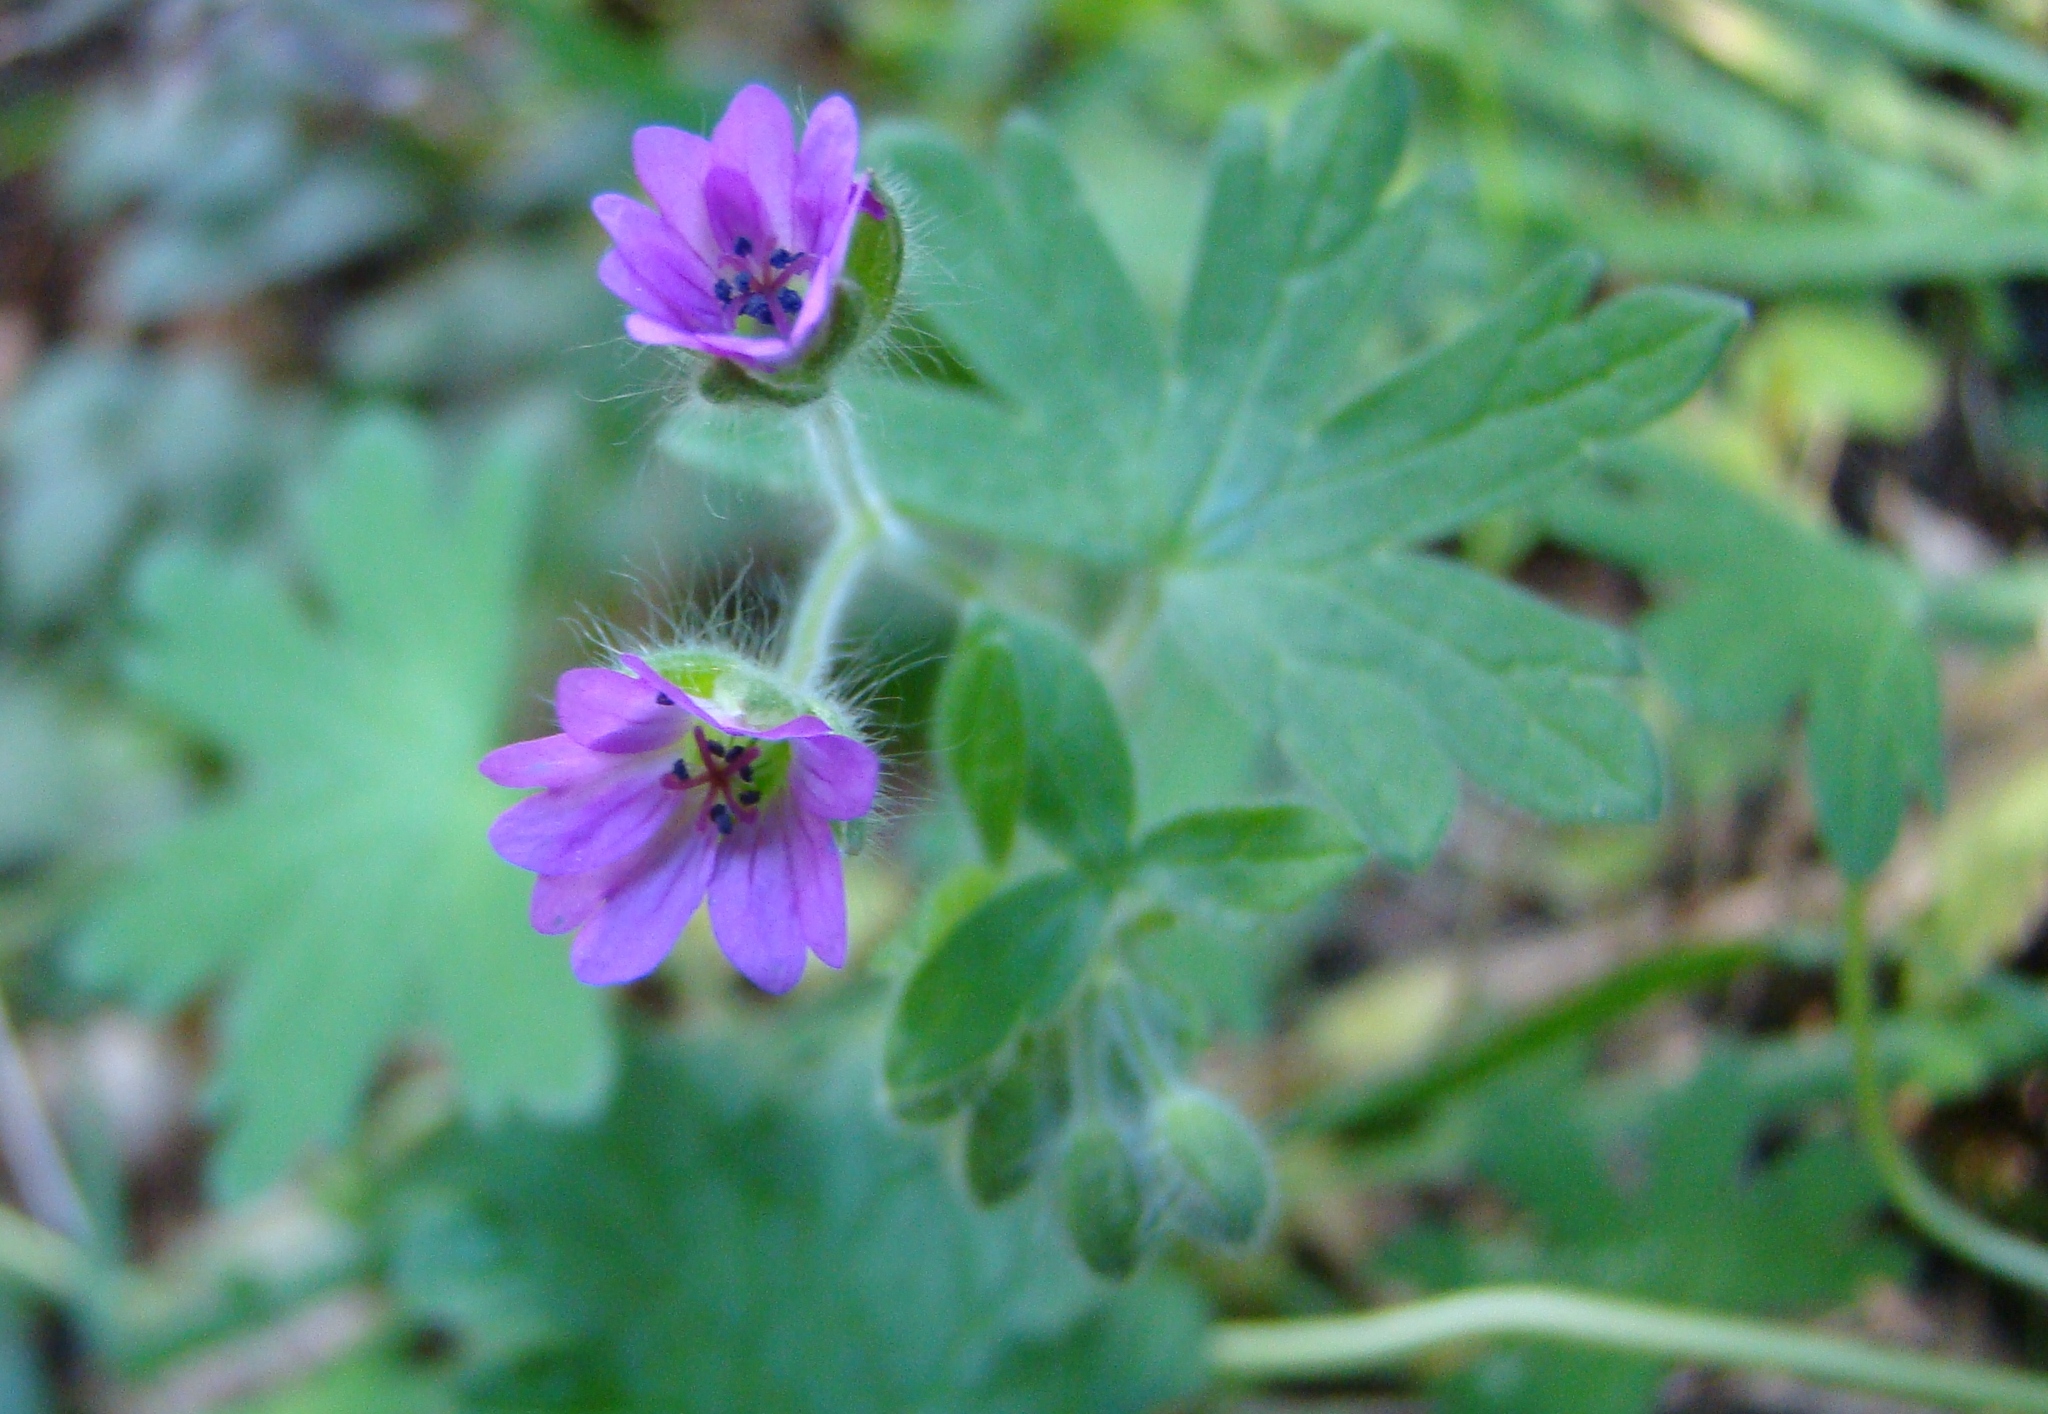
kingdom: Plantae
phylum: Tracheophyta
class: Magnoliopsida
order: Geraniales
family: Geraniaceae
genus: Geranium
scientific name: Geranium molle
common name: Dove's-foot crane's-bill
